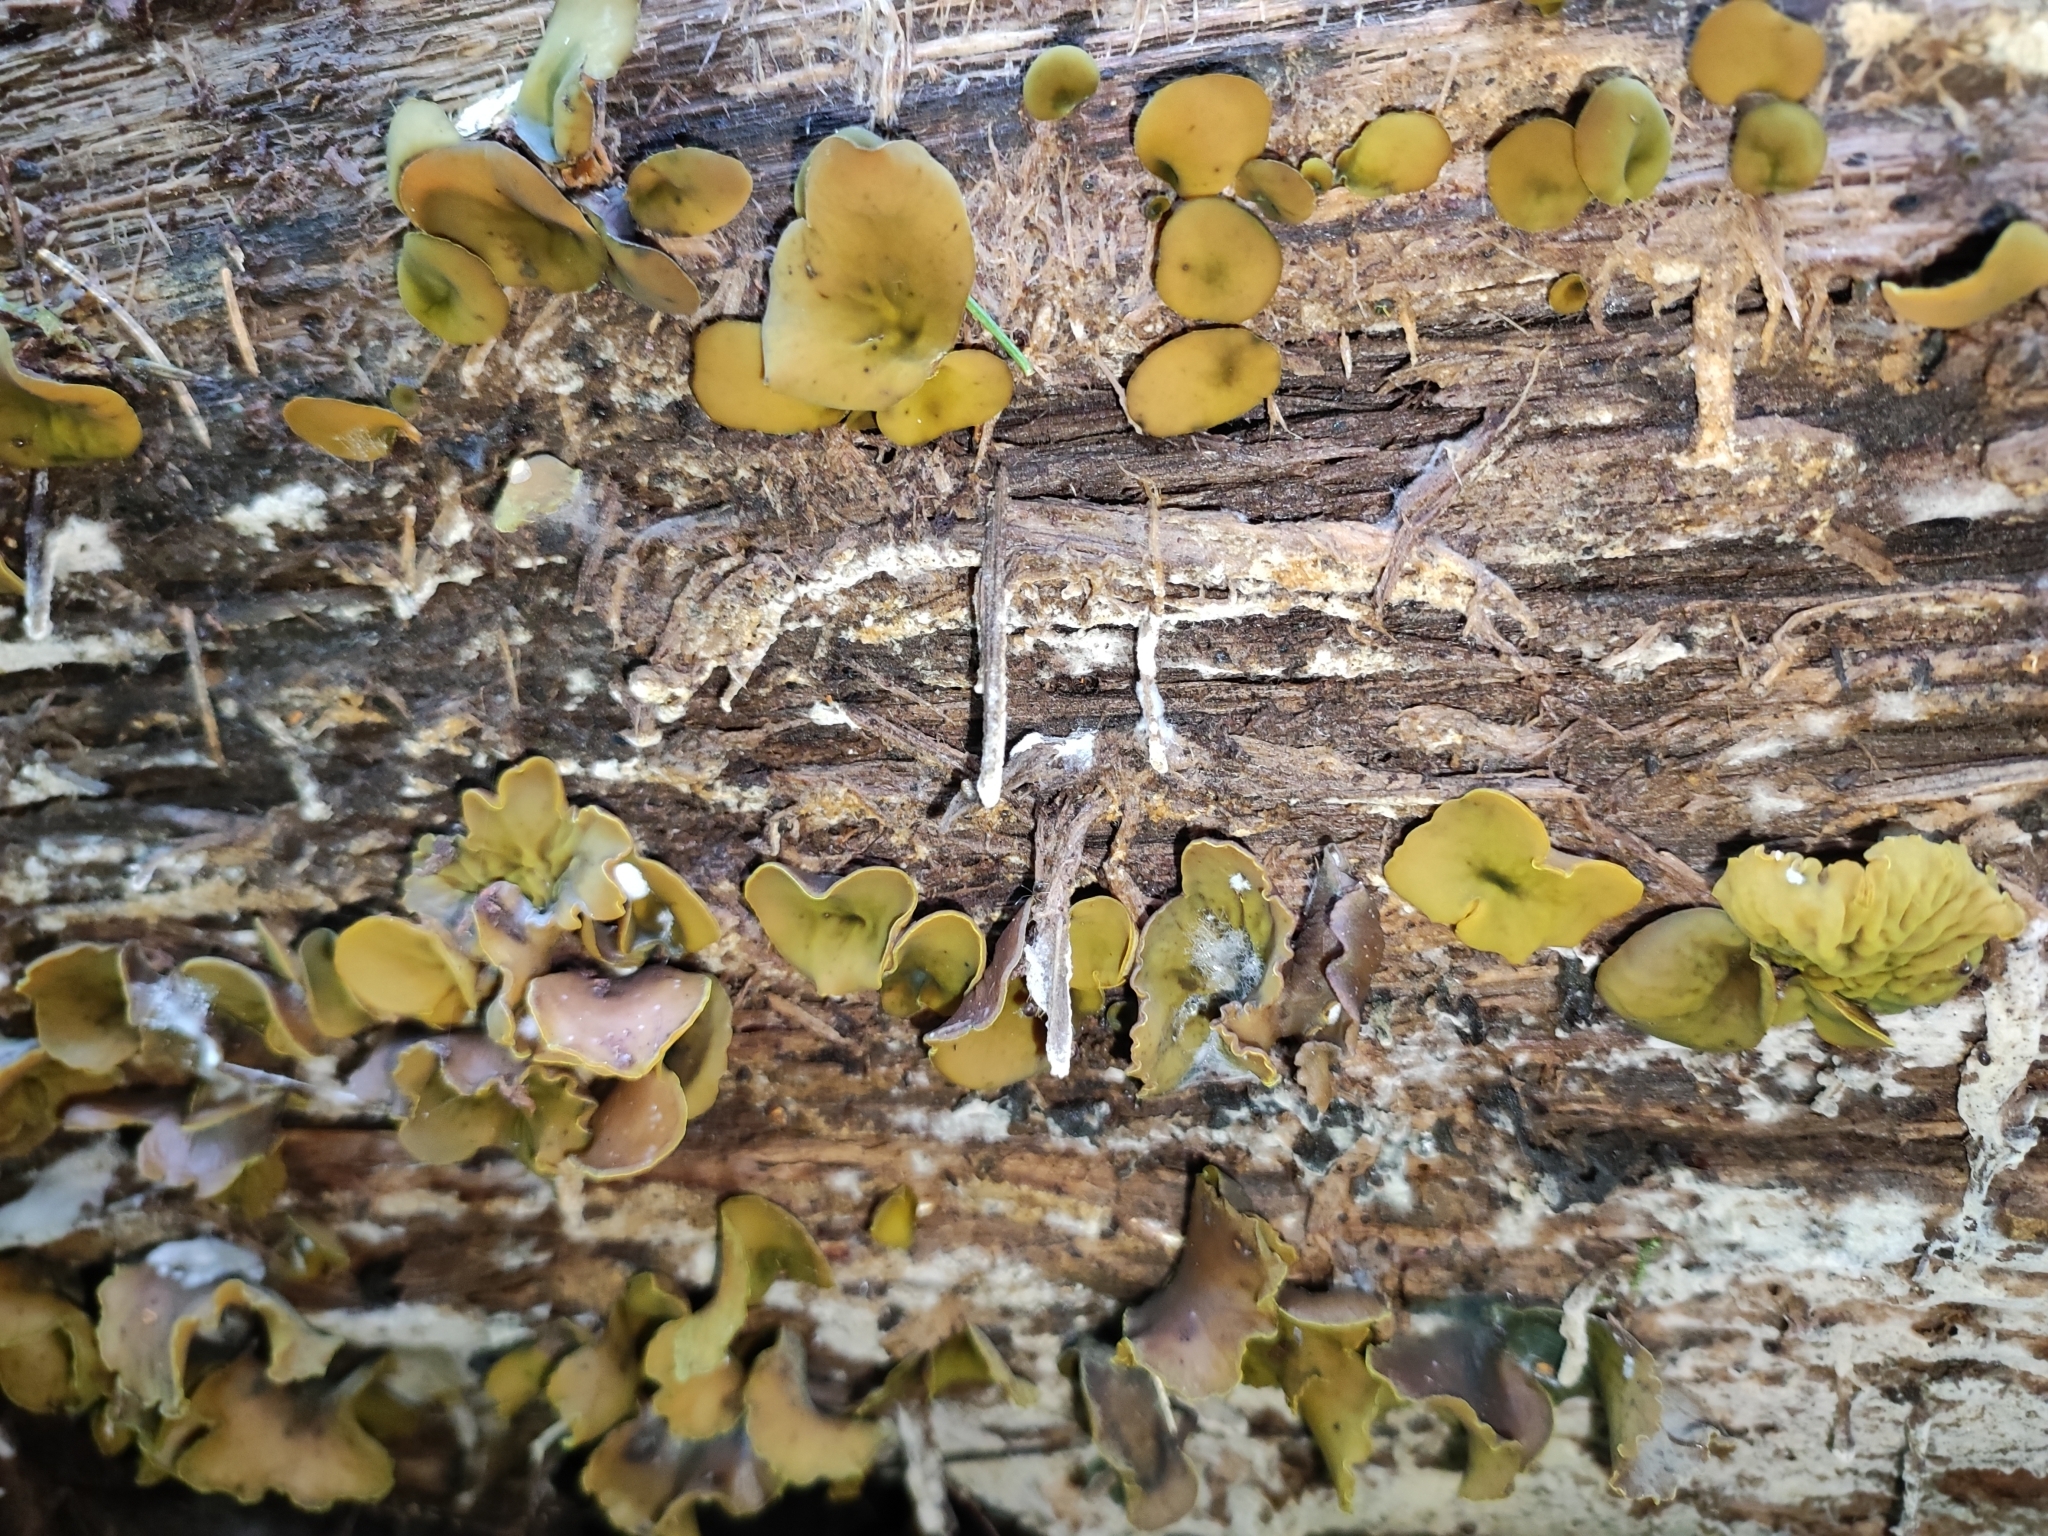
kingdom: Fungi
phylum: Ascomycota
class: Leotiomycetes
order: Helotiales
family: Cenangiaceae
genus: Chlorencoelia
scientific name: Chlorencoelia versiformis
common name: Flea's ear
